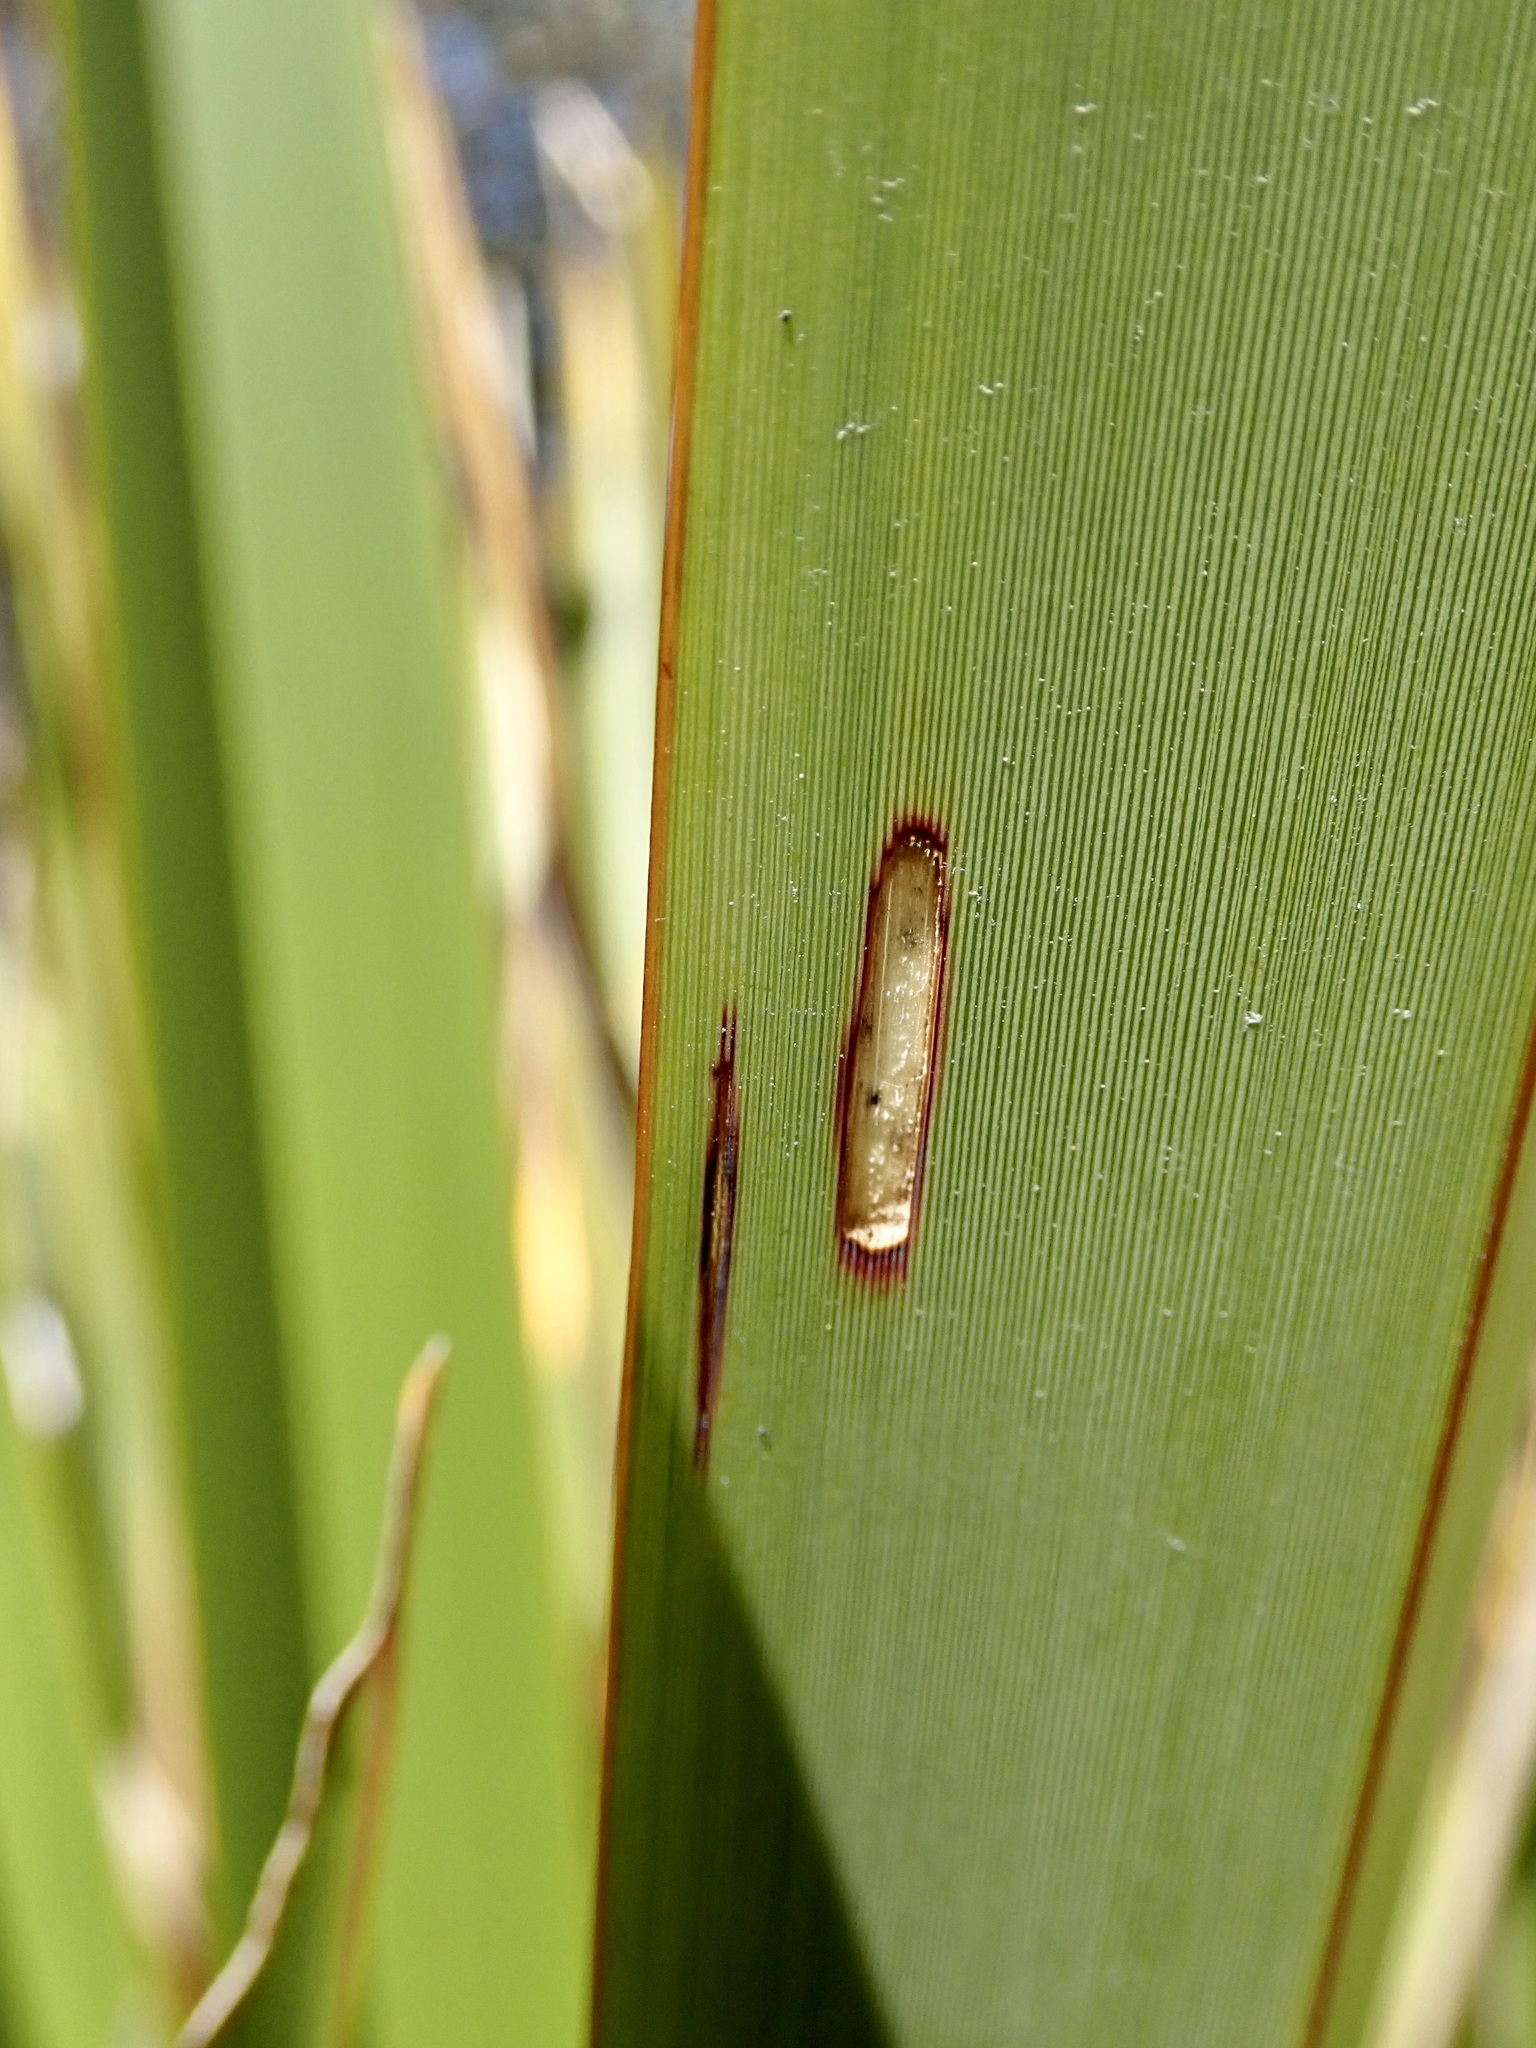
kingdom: Animalia
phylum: Arthropoda
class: Insecta
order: Lepidoptera
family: Geometridae
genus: Orthoclydon
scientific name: Orthoclydon praefectata
